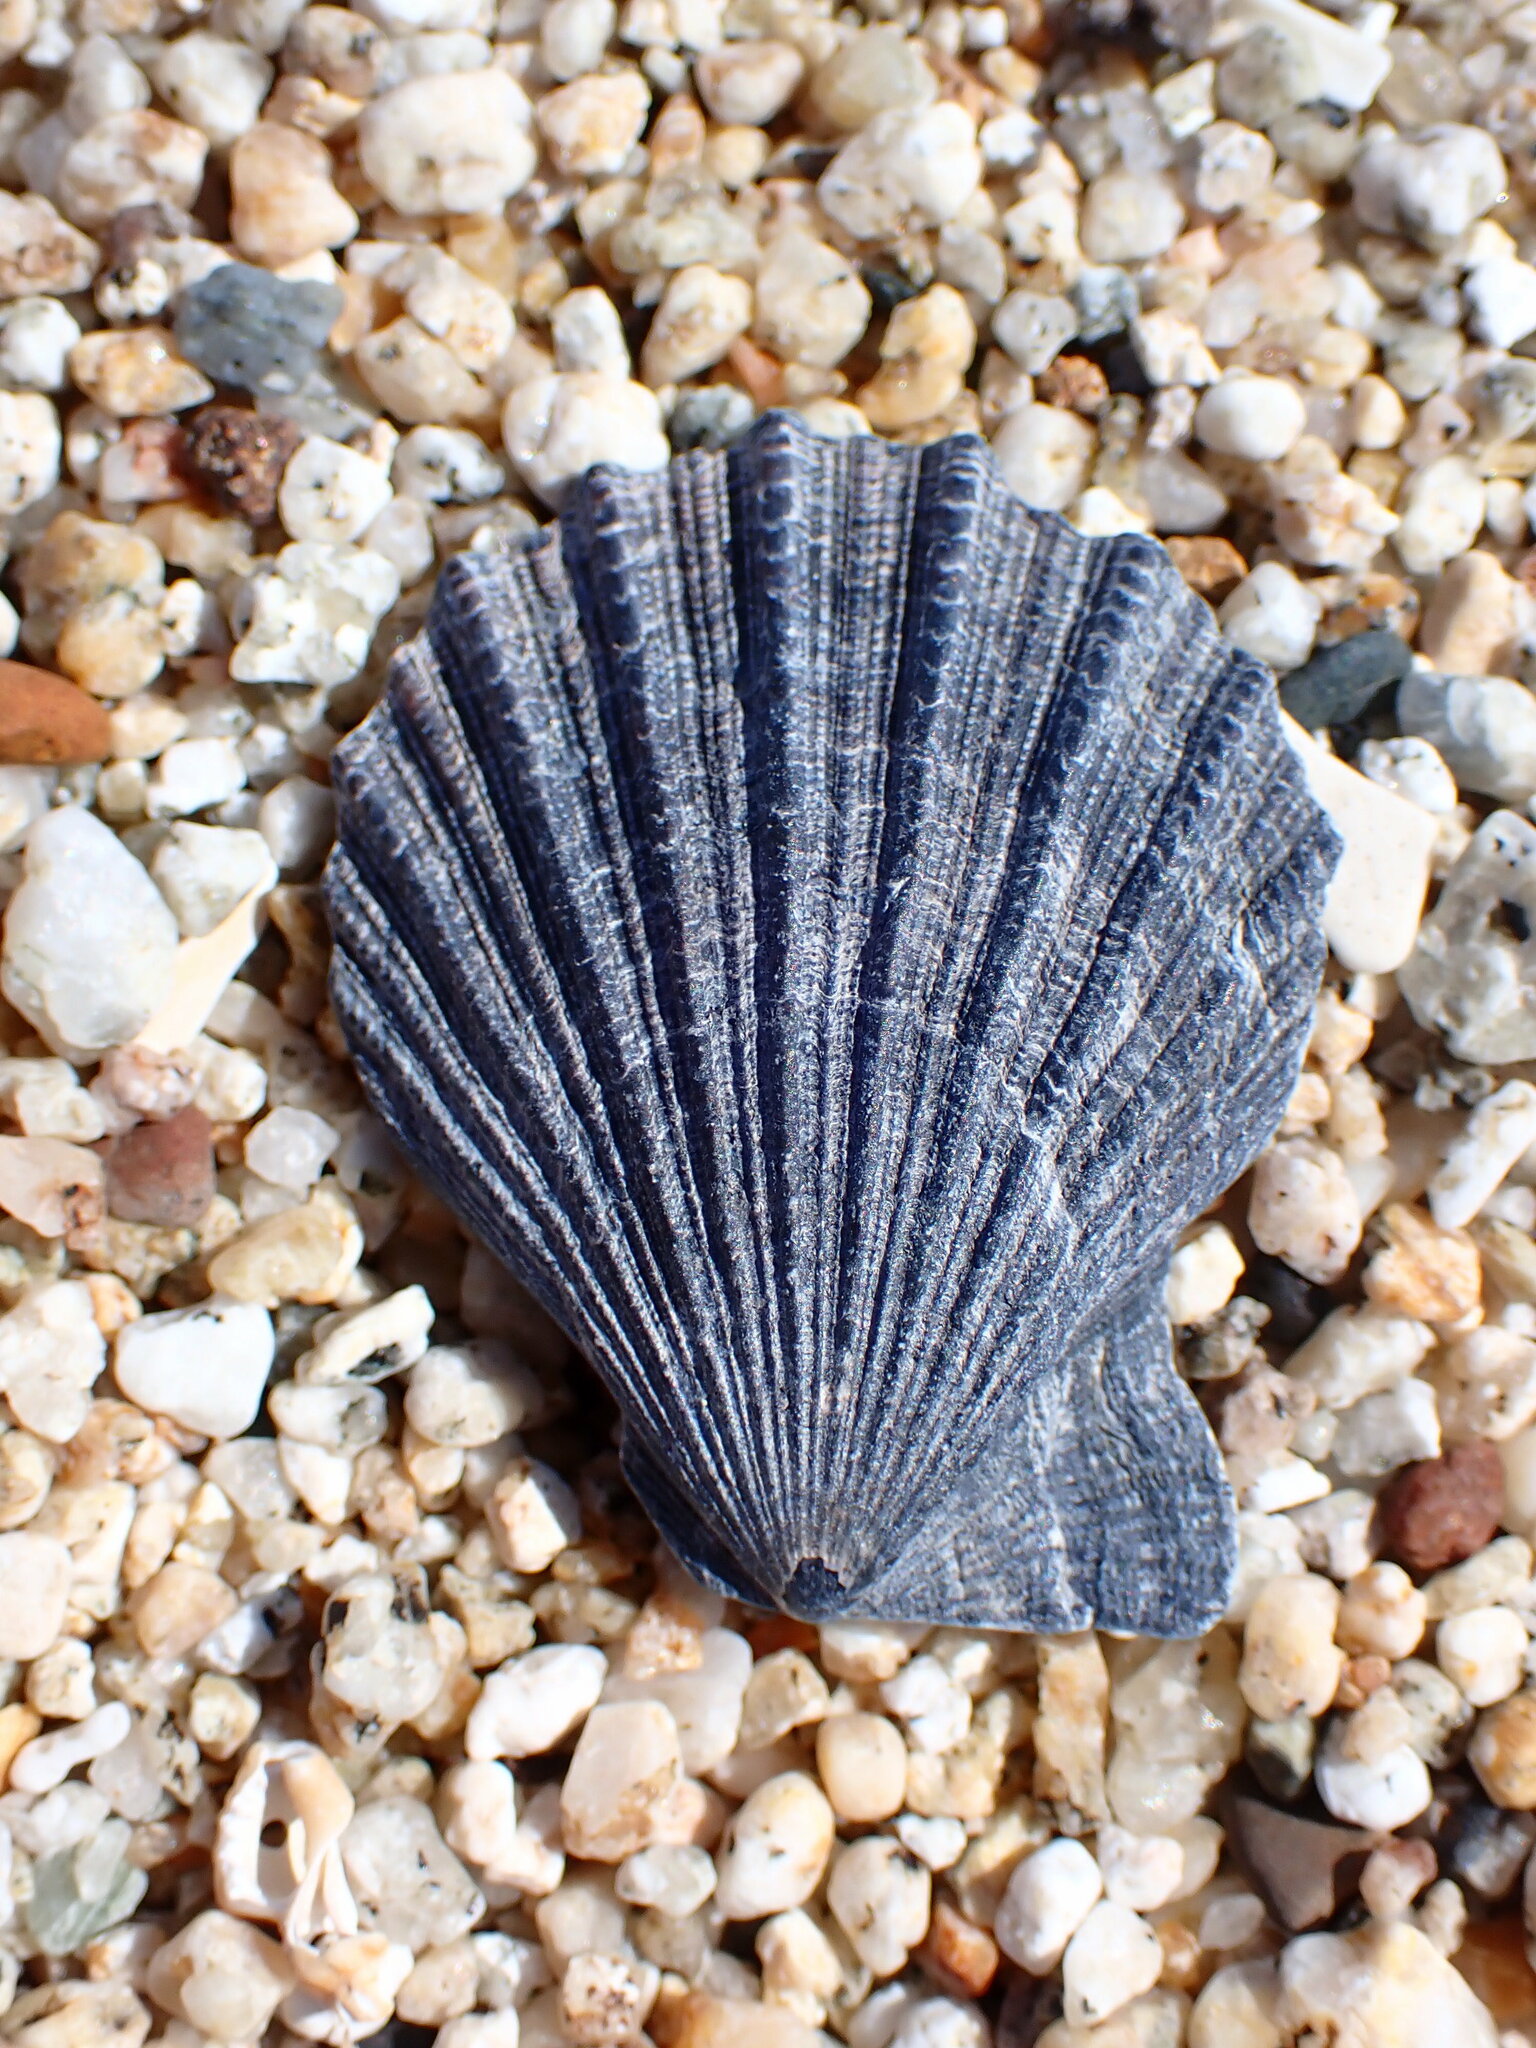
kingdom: Animalia
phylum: Mollusca
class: Bivalvia
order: Pectinida
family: Pectinidae
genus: Crassadoma
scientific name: Crassadoma gigantea
